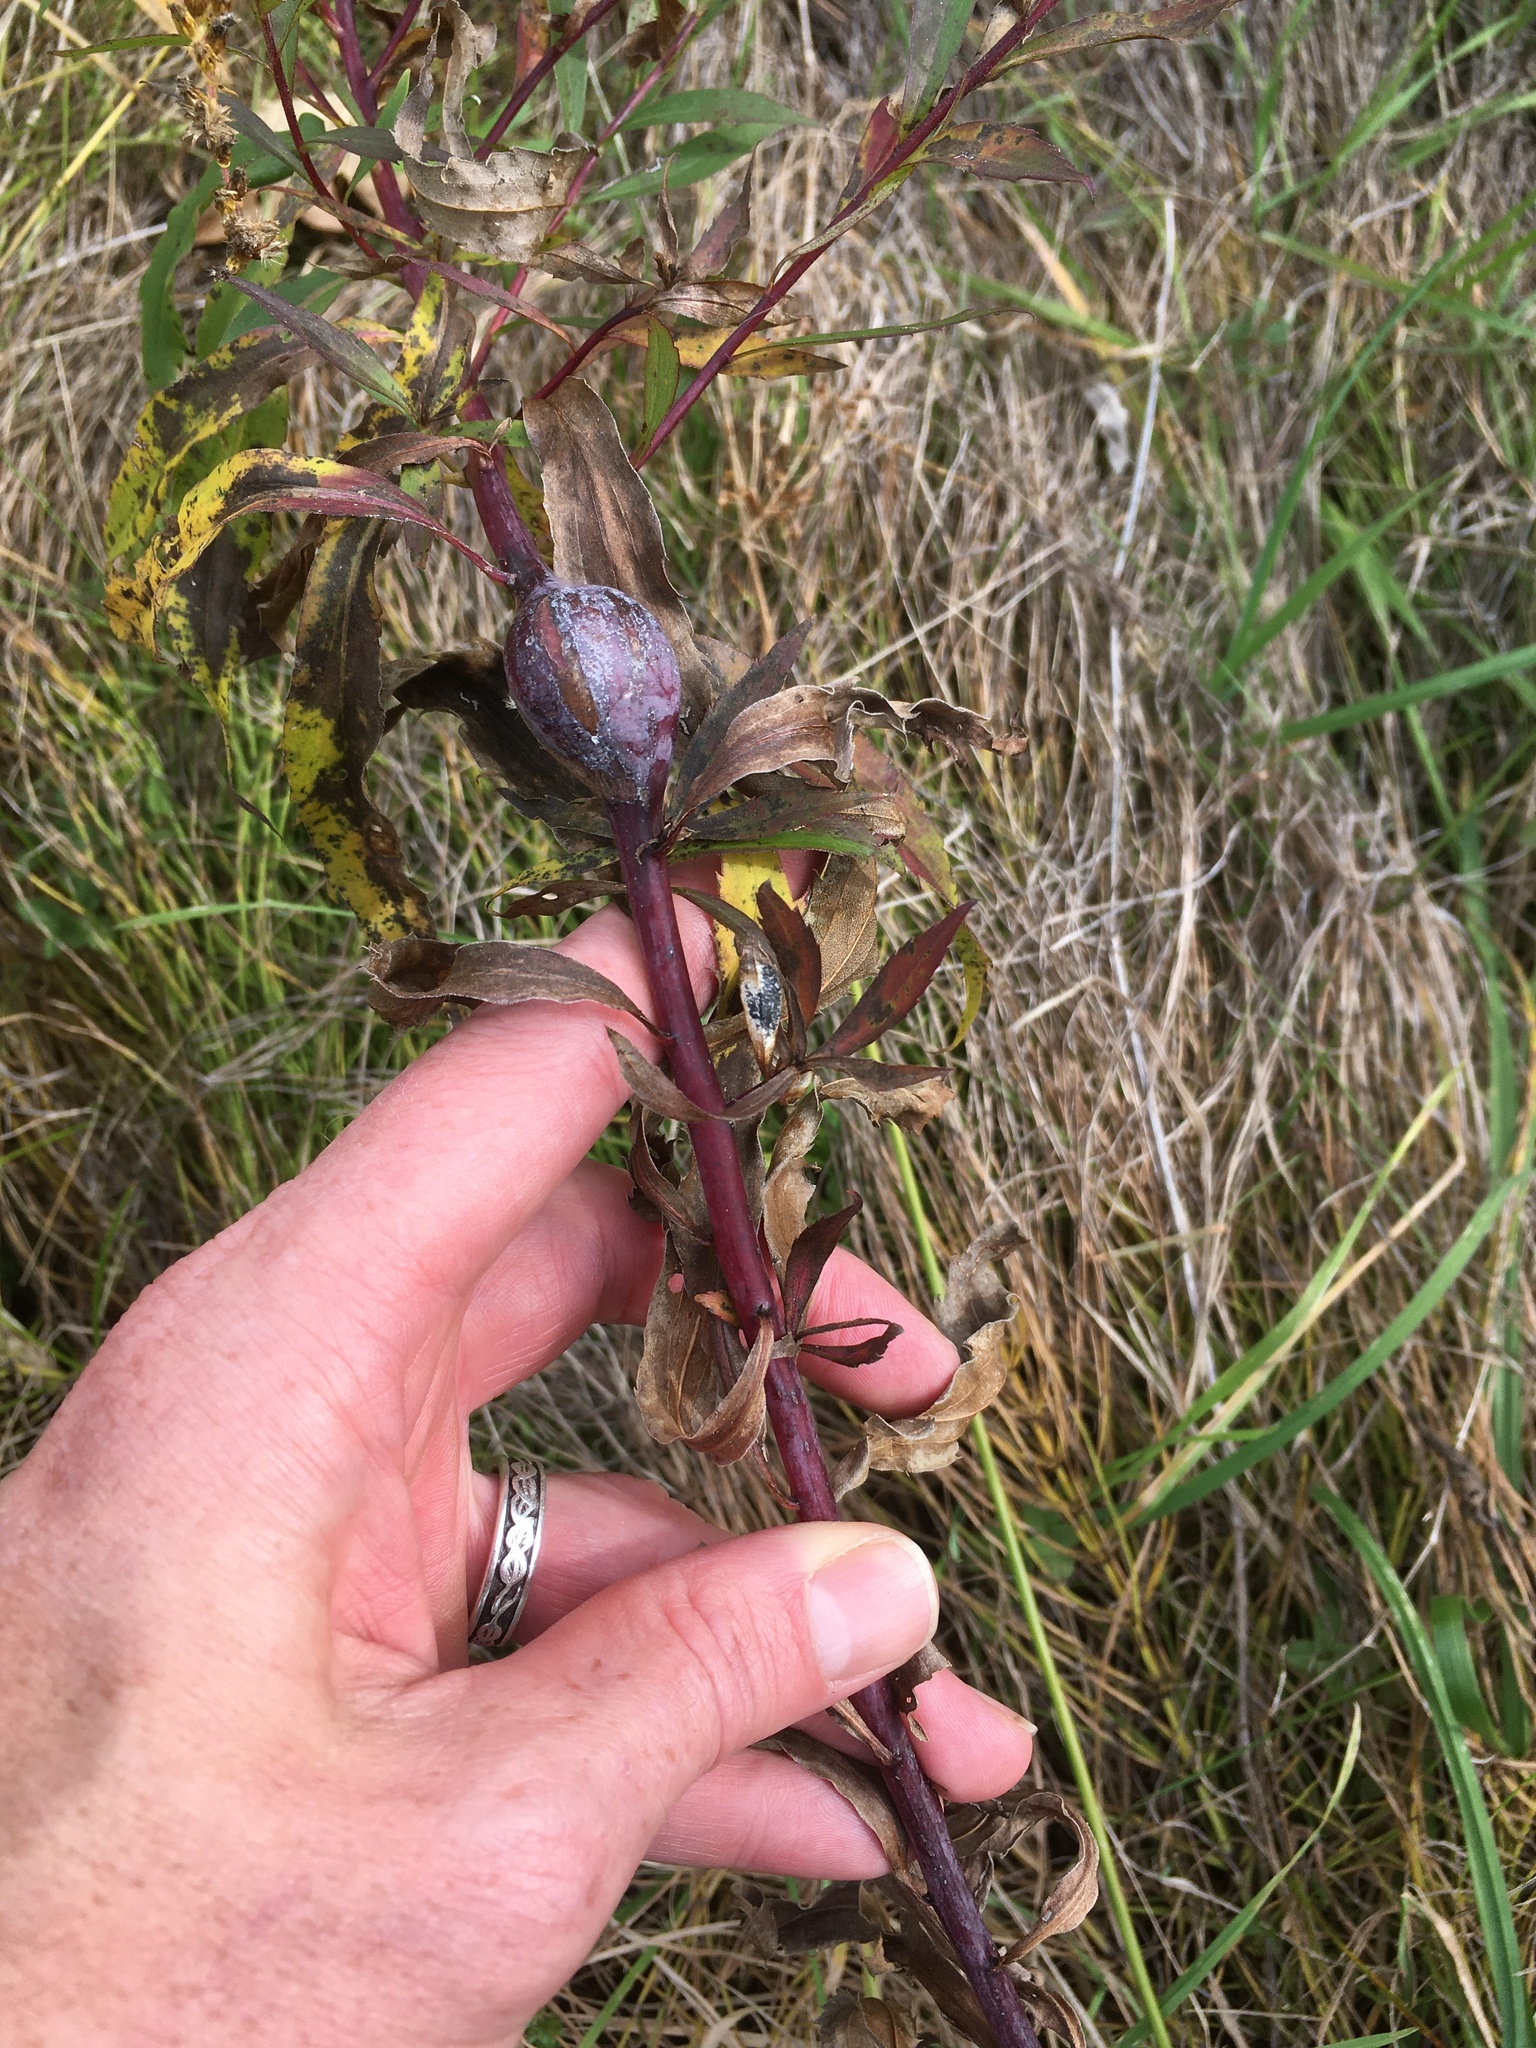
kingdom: Plantae
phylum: Tracheophyta
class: Magnoliopsida
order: Asterales
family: Asteraceae
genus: Solidago
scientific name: Solidago gigantea
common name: Giant goldenrod
